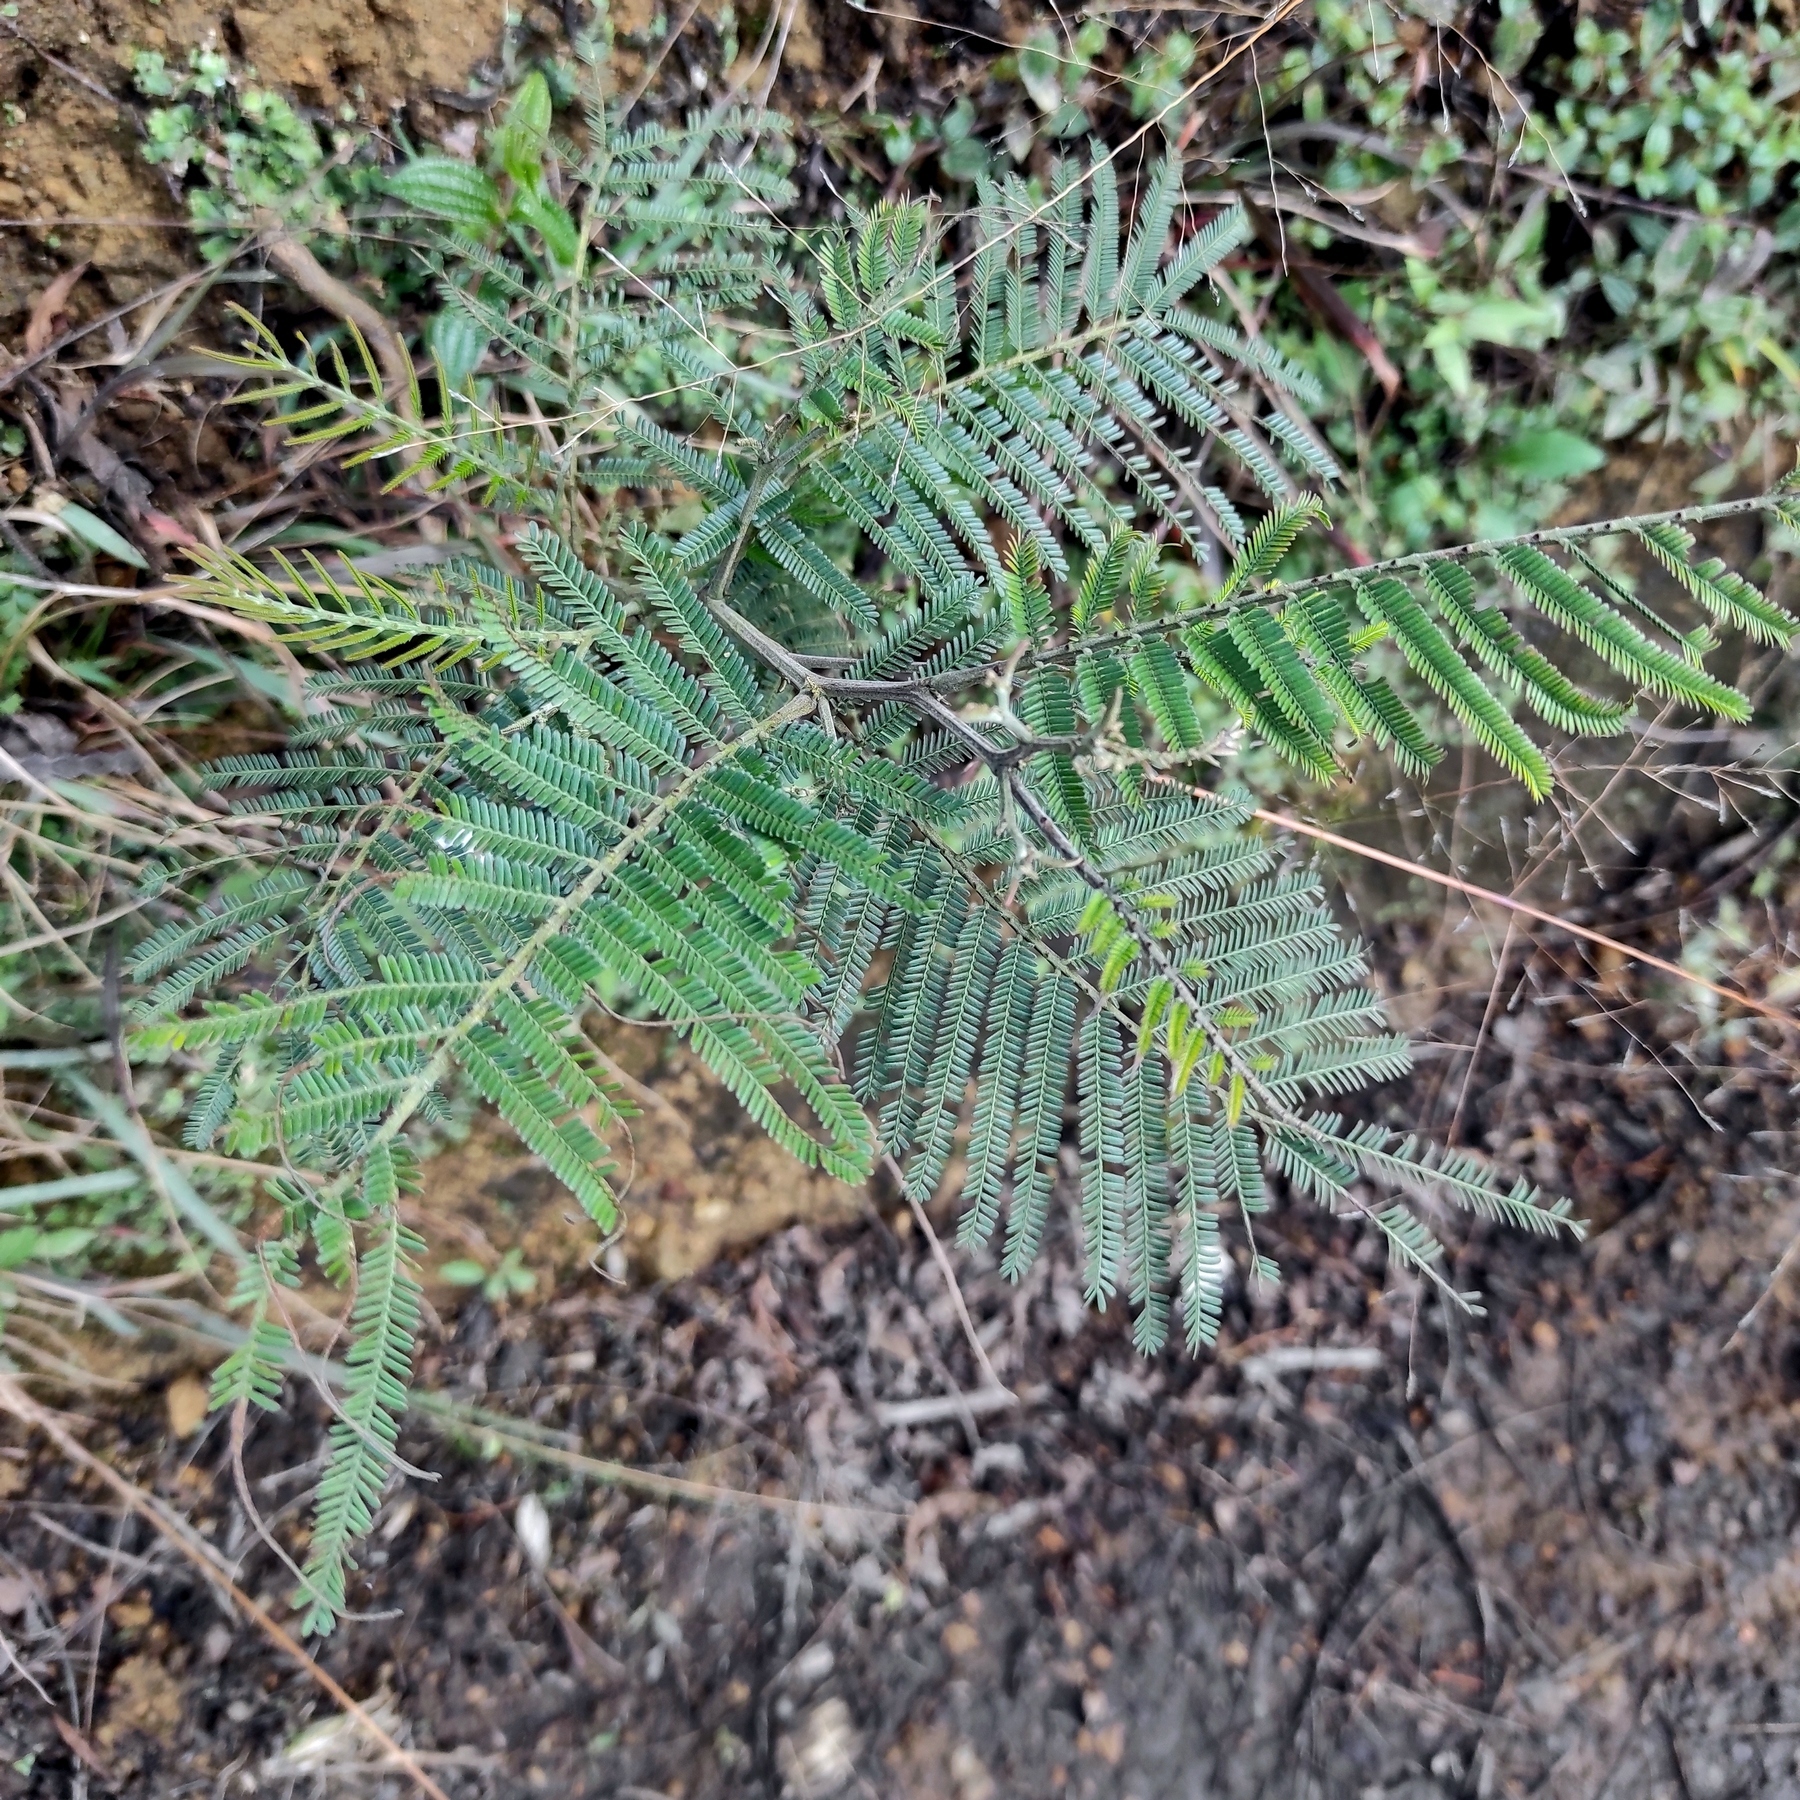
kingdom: Plantae
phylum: Tracheophyta
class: Magnoliopsida
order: Fabales
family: Fabaceae
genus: Acacia
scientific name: Acacia mearnsii
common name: Black wattle
